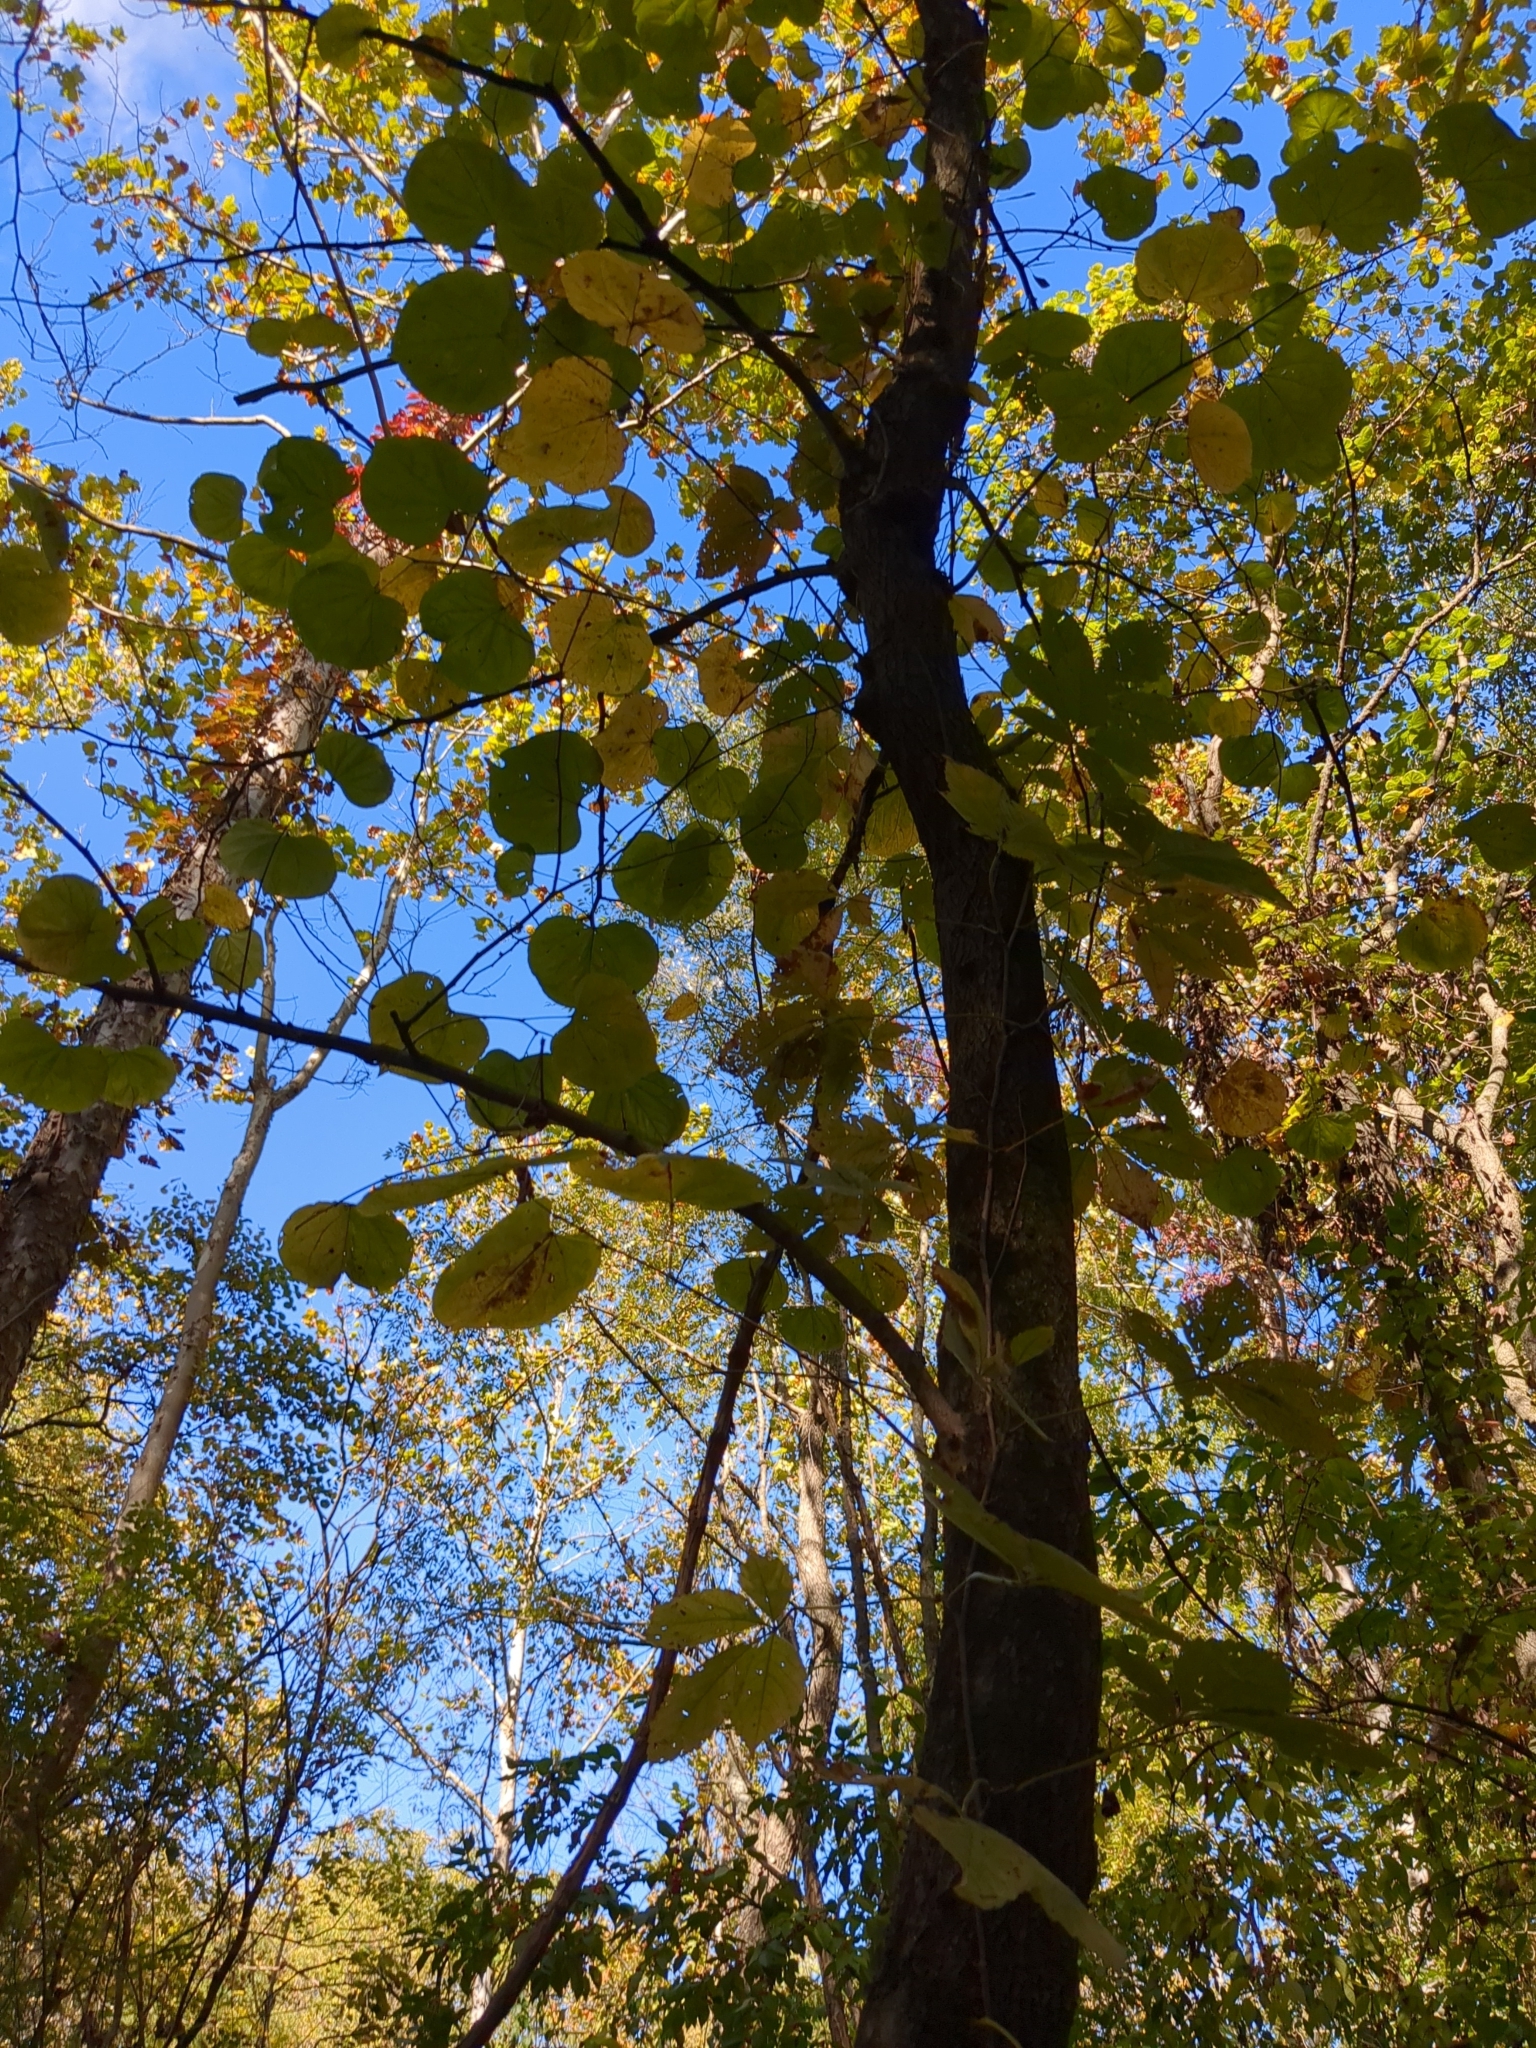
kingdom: Plantae
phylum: Tracheophyta
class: Magnoliopsida
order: Fabales
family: Fabaceae
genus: Cercis
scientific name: Cercis canadensis
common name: Eastern redbud
